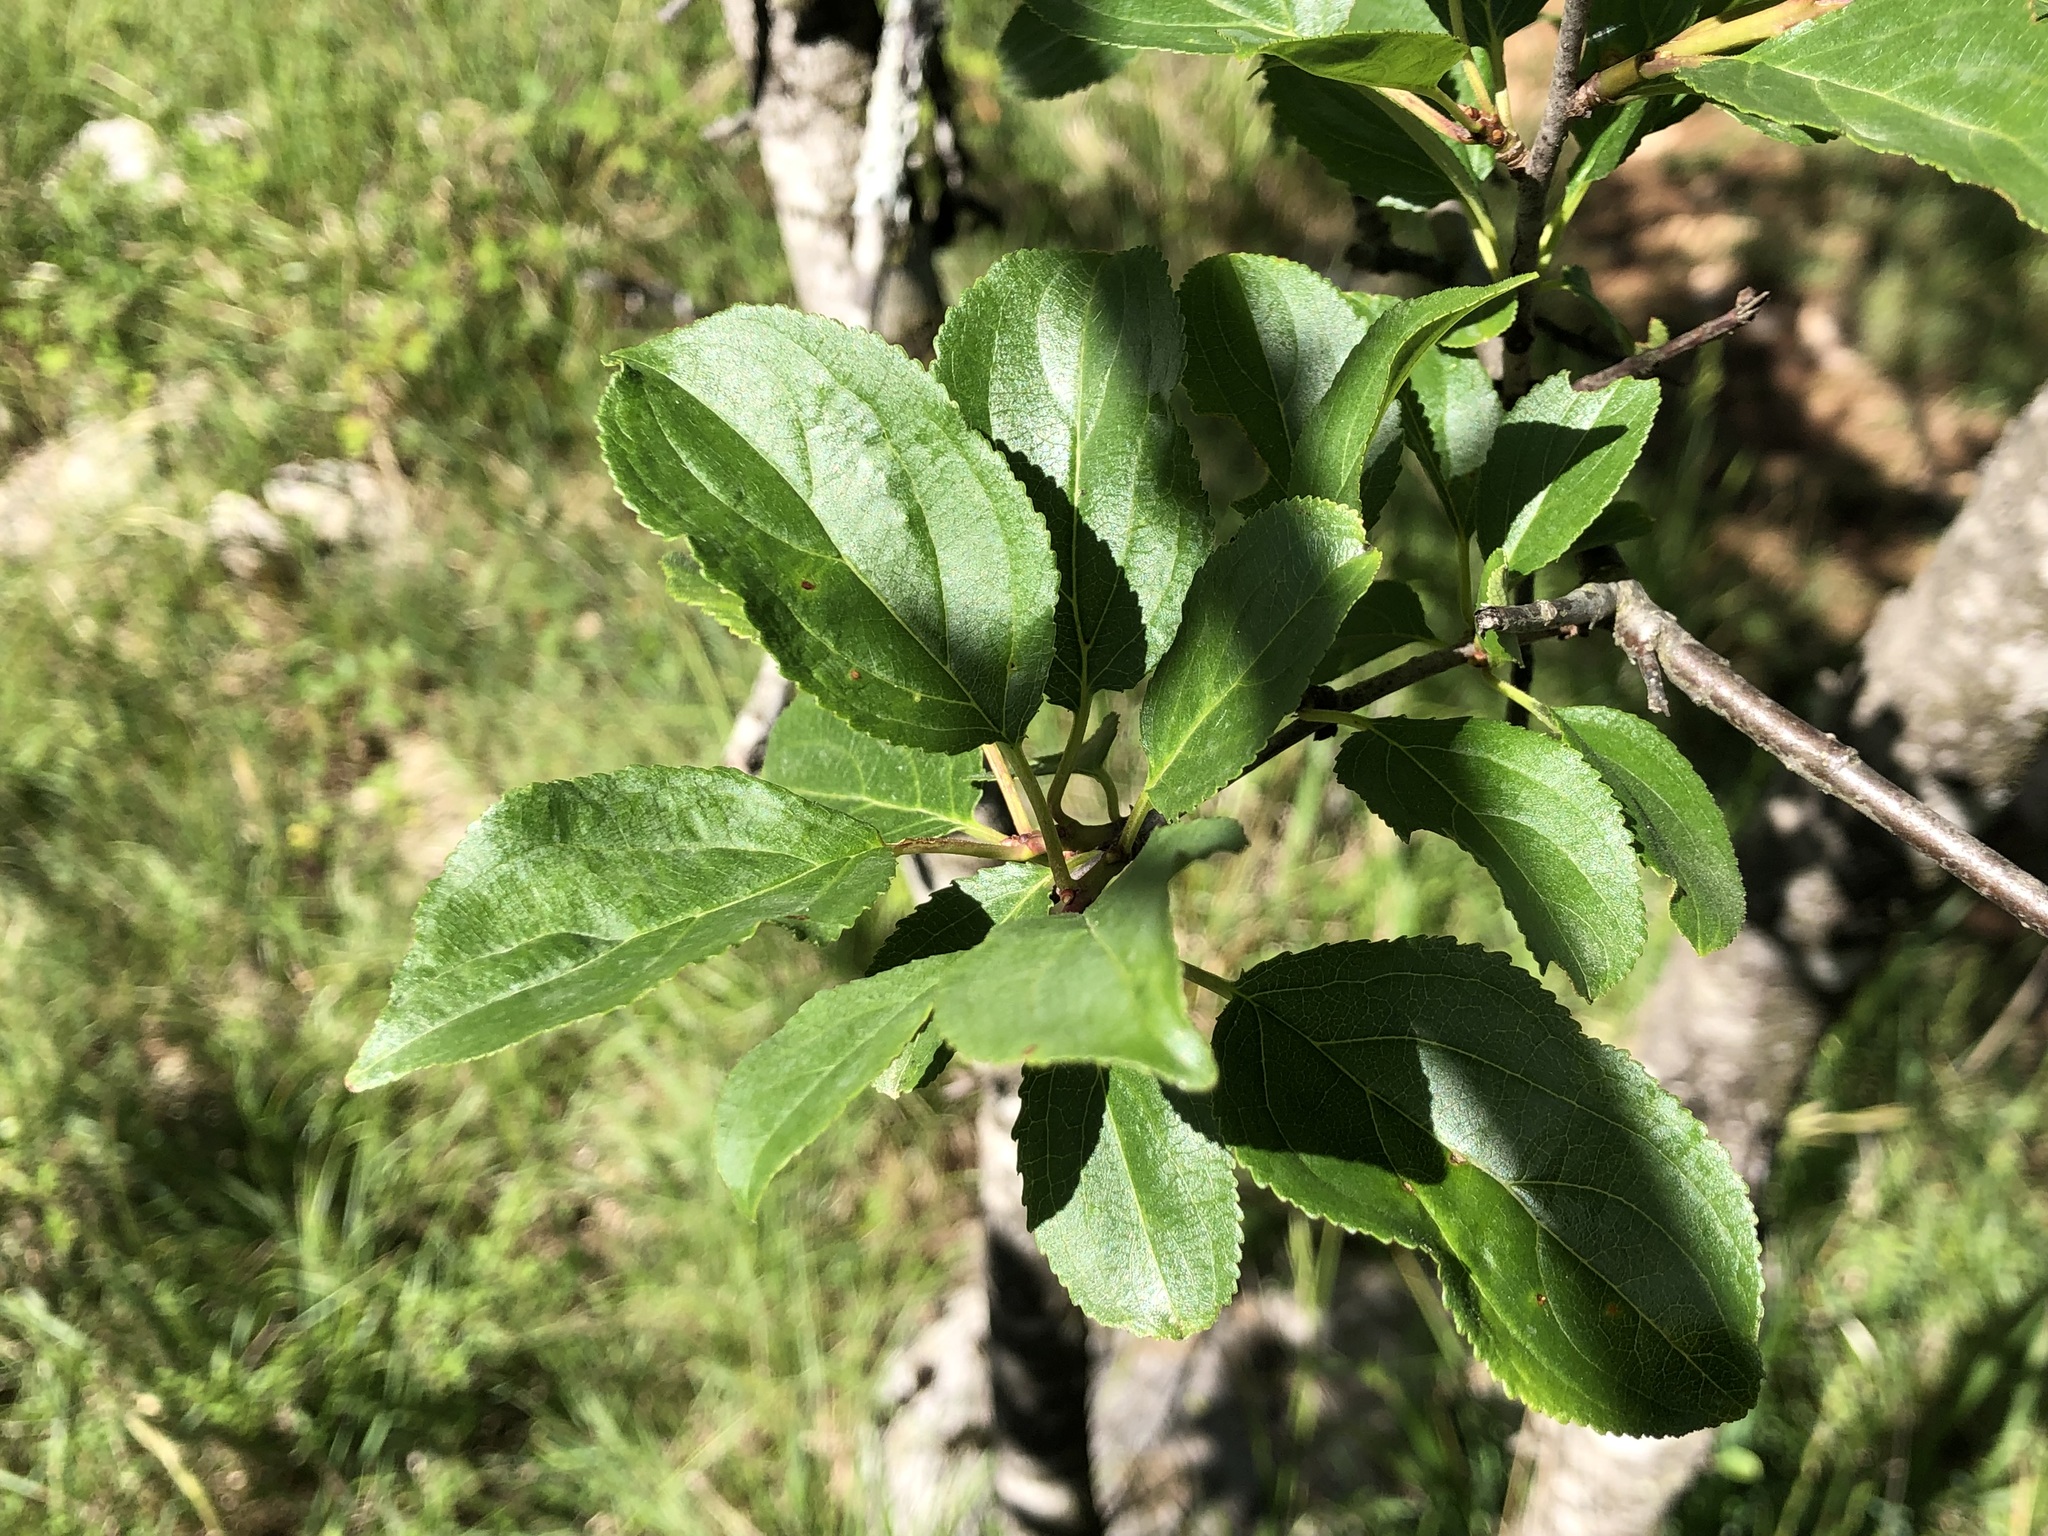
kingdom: Plantae
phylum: Tracheophyta
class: Magnoliopsida
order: Rosales
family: Rhamnaceae
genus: Rhamnus
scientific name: Rhamnus cathartica
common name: Common buckthorn
